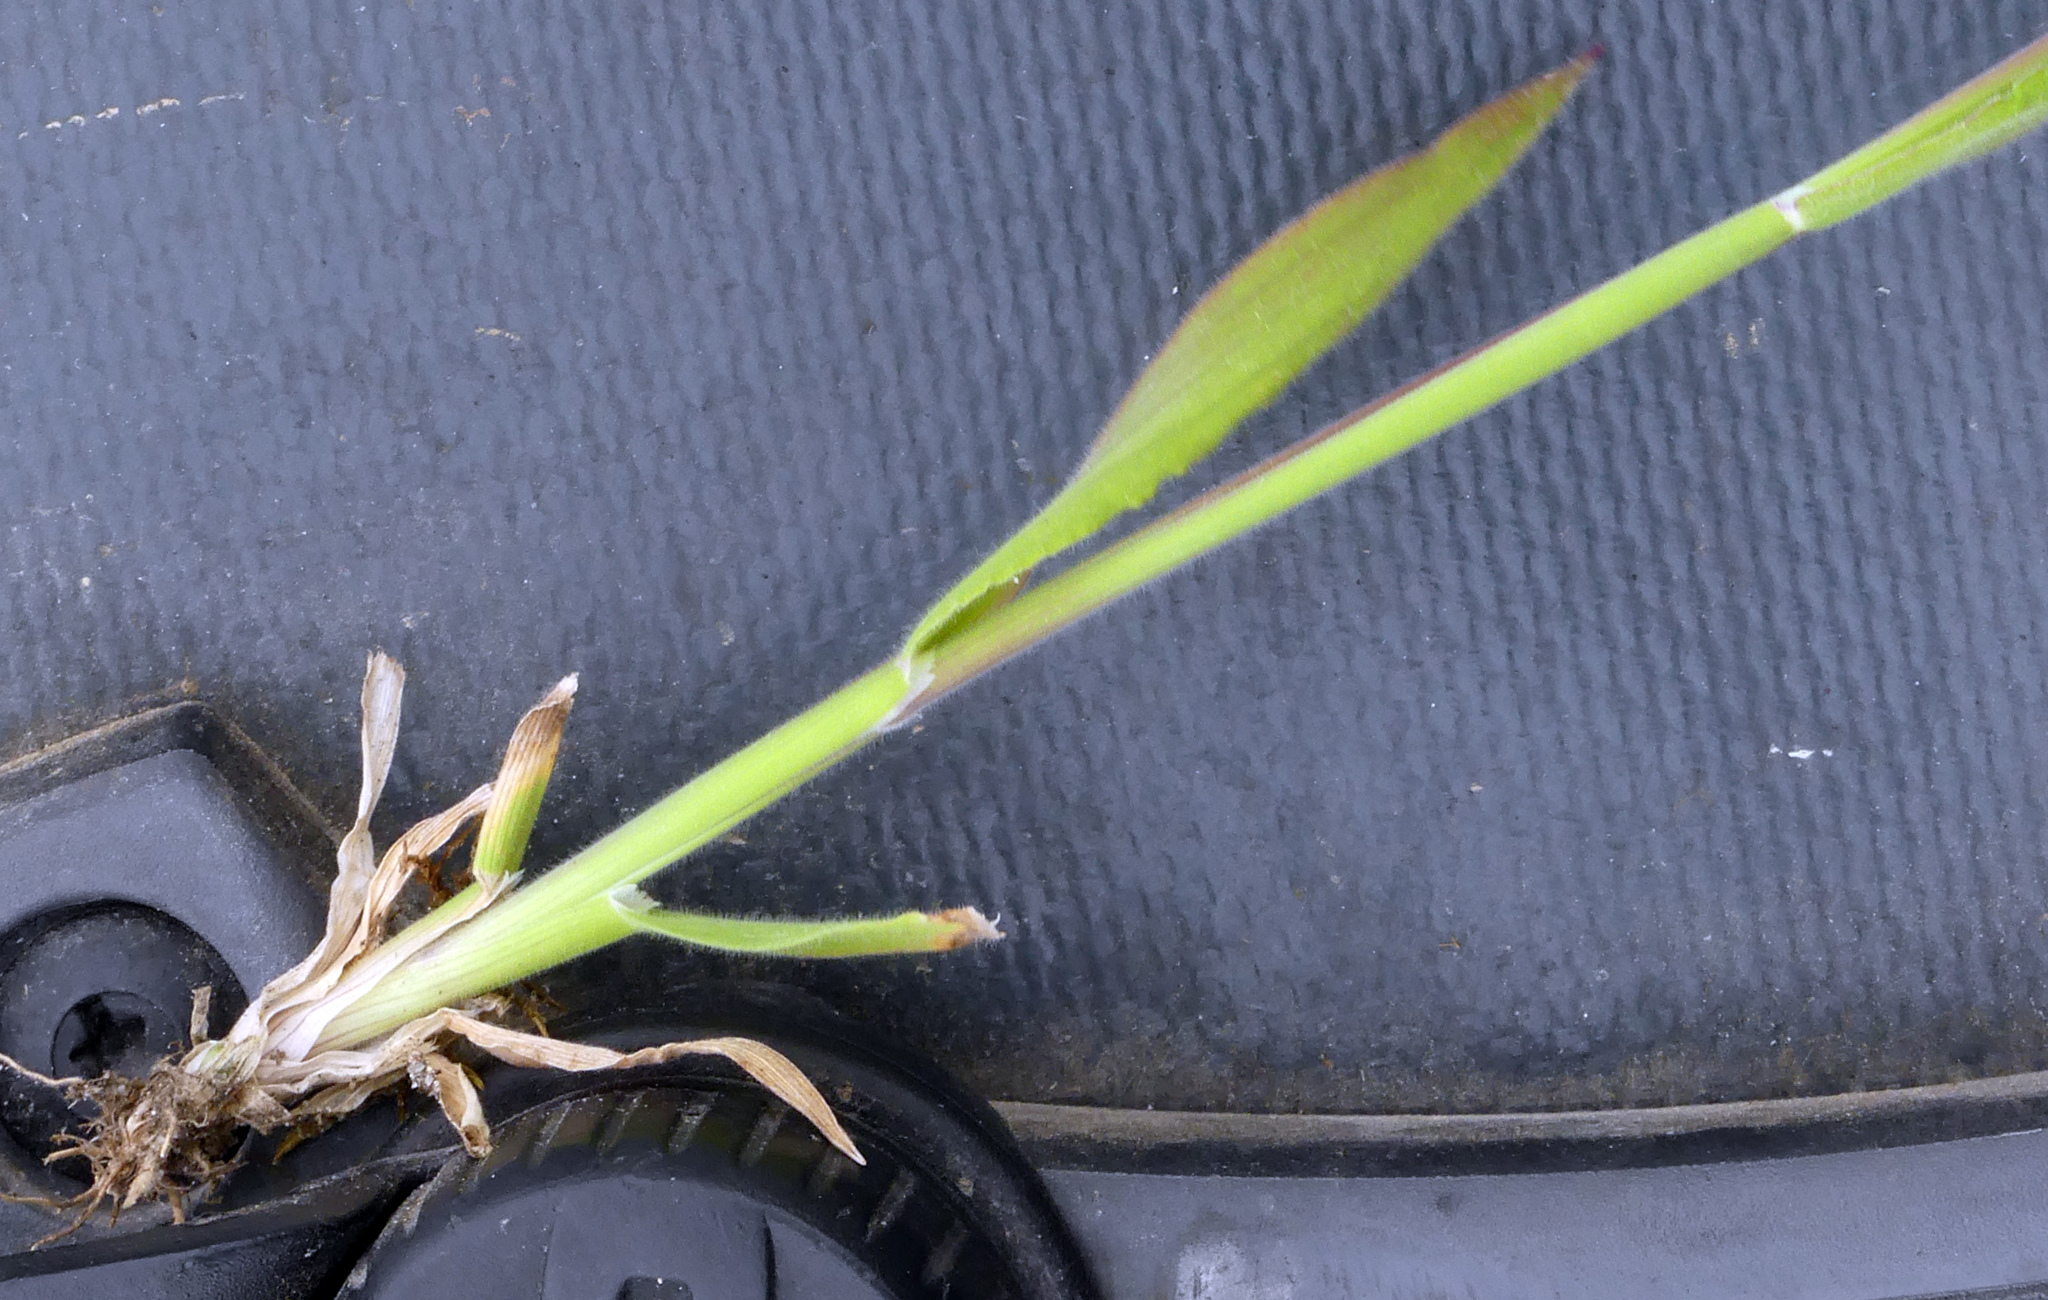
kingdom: Plantae
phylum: Tracheophyta
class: Liliopsida
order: Poales
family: Poaceae
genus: Holcus
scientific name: Holcus lanatus
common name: Yorkshire-fog
